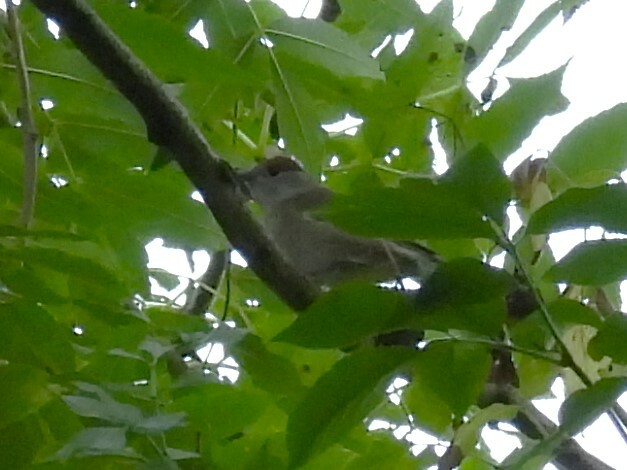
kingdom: Animalia
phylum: Chordata
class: Aves
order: Passeriformes
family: Sylviidae
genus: Sylvia
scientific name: Sylvia atricapilla
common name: Eurasian blackcap
